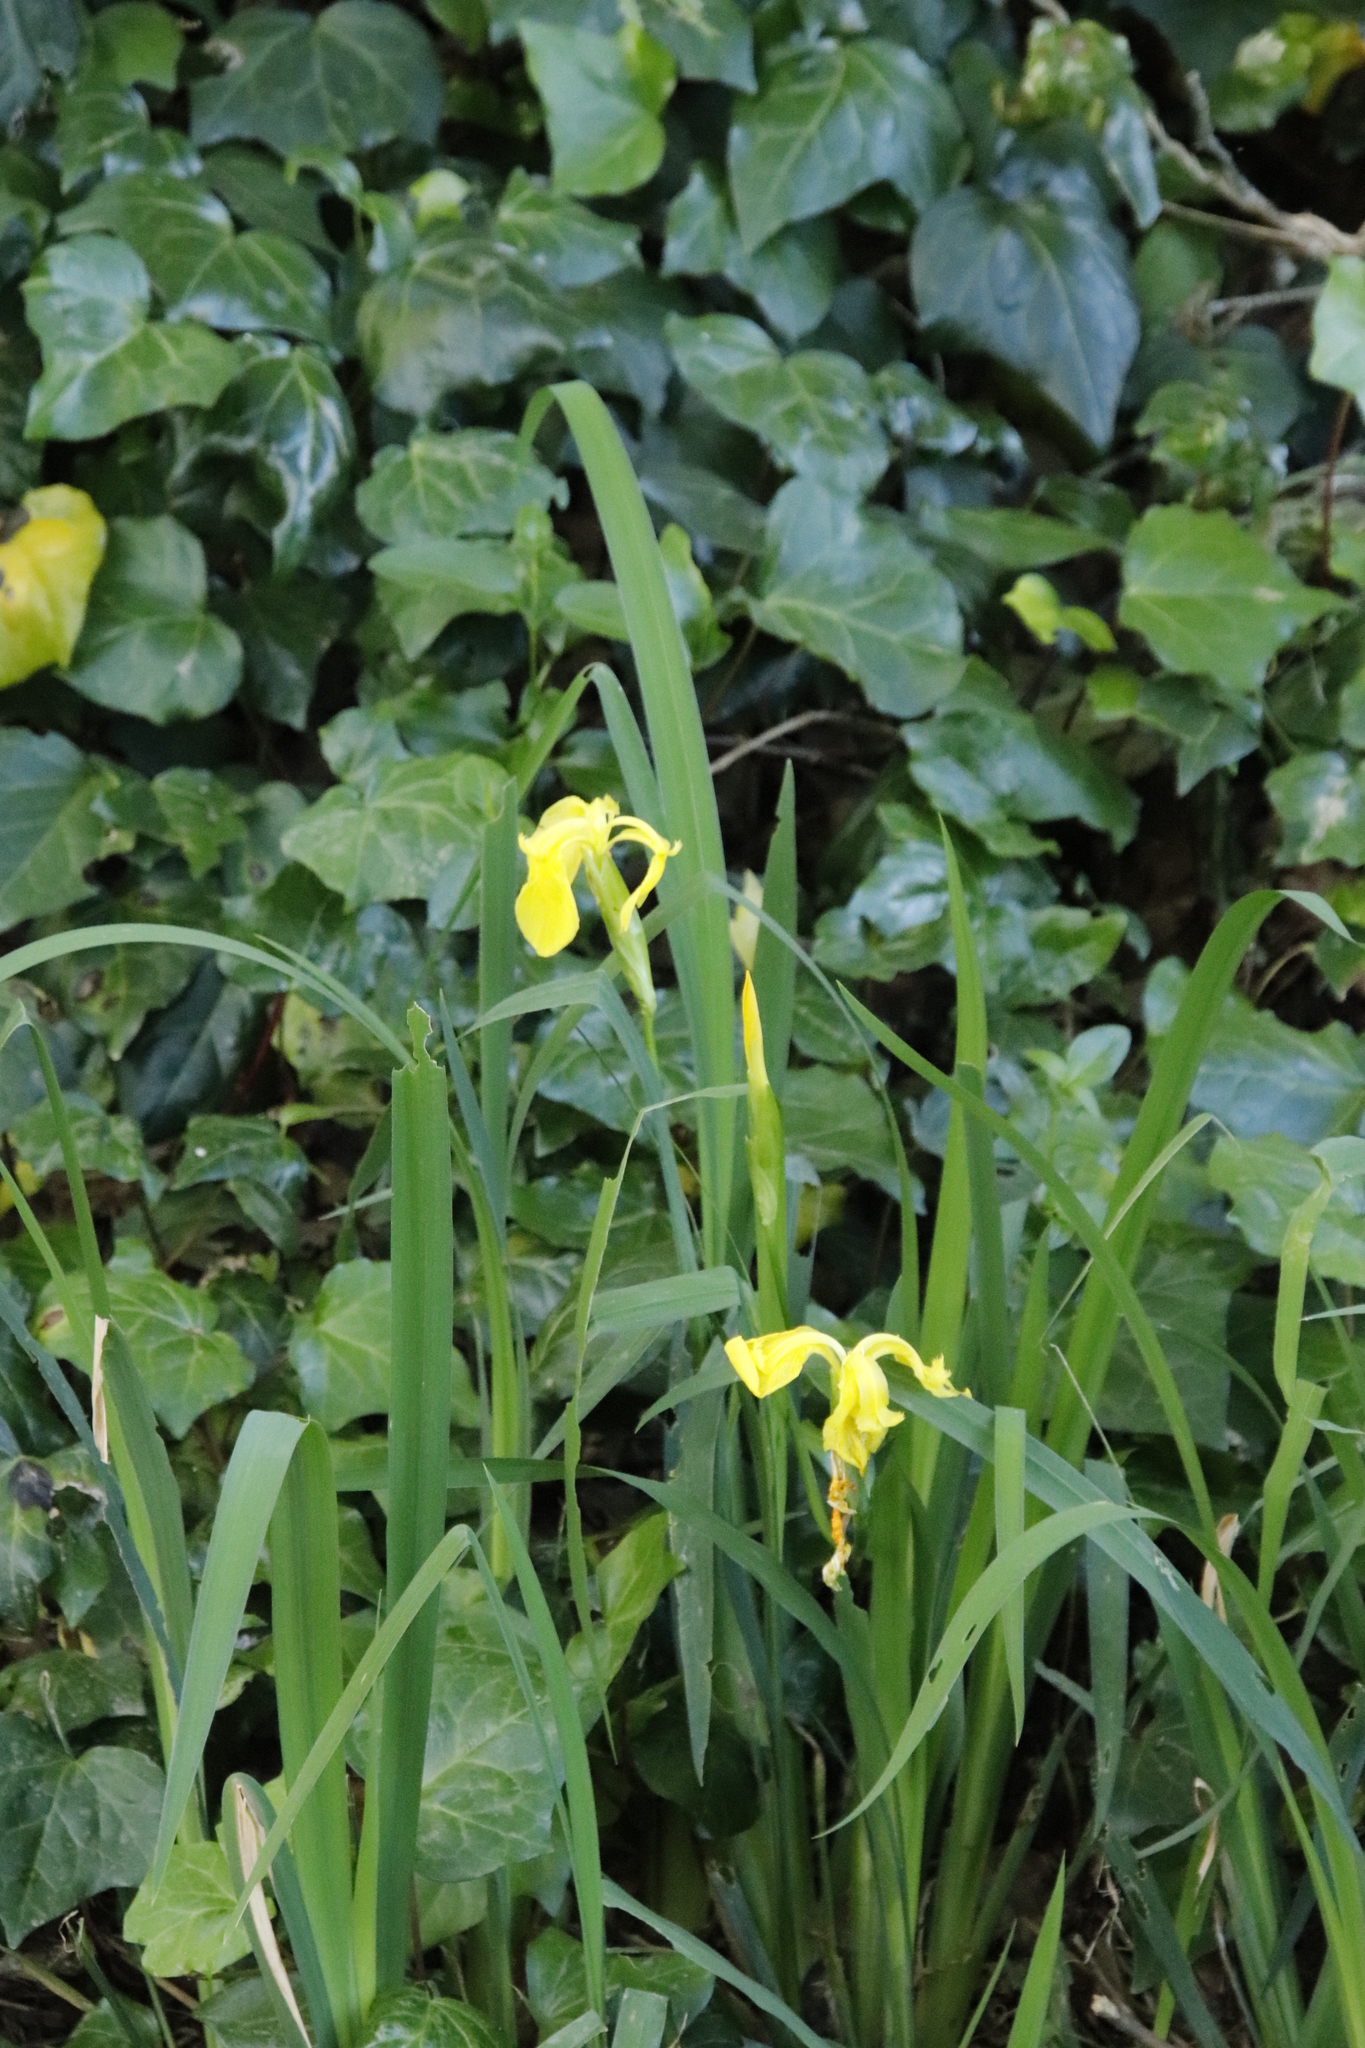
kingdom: Plantae
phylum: Tracheophyta
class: Liliopsida
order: Asparagales
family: Iridaceae
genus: Iris
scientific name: Iris pseudacorus
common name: Yellow flag
